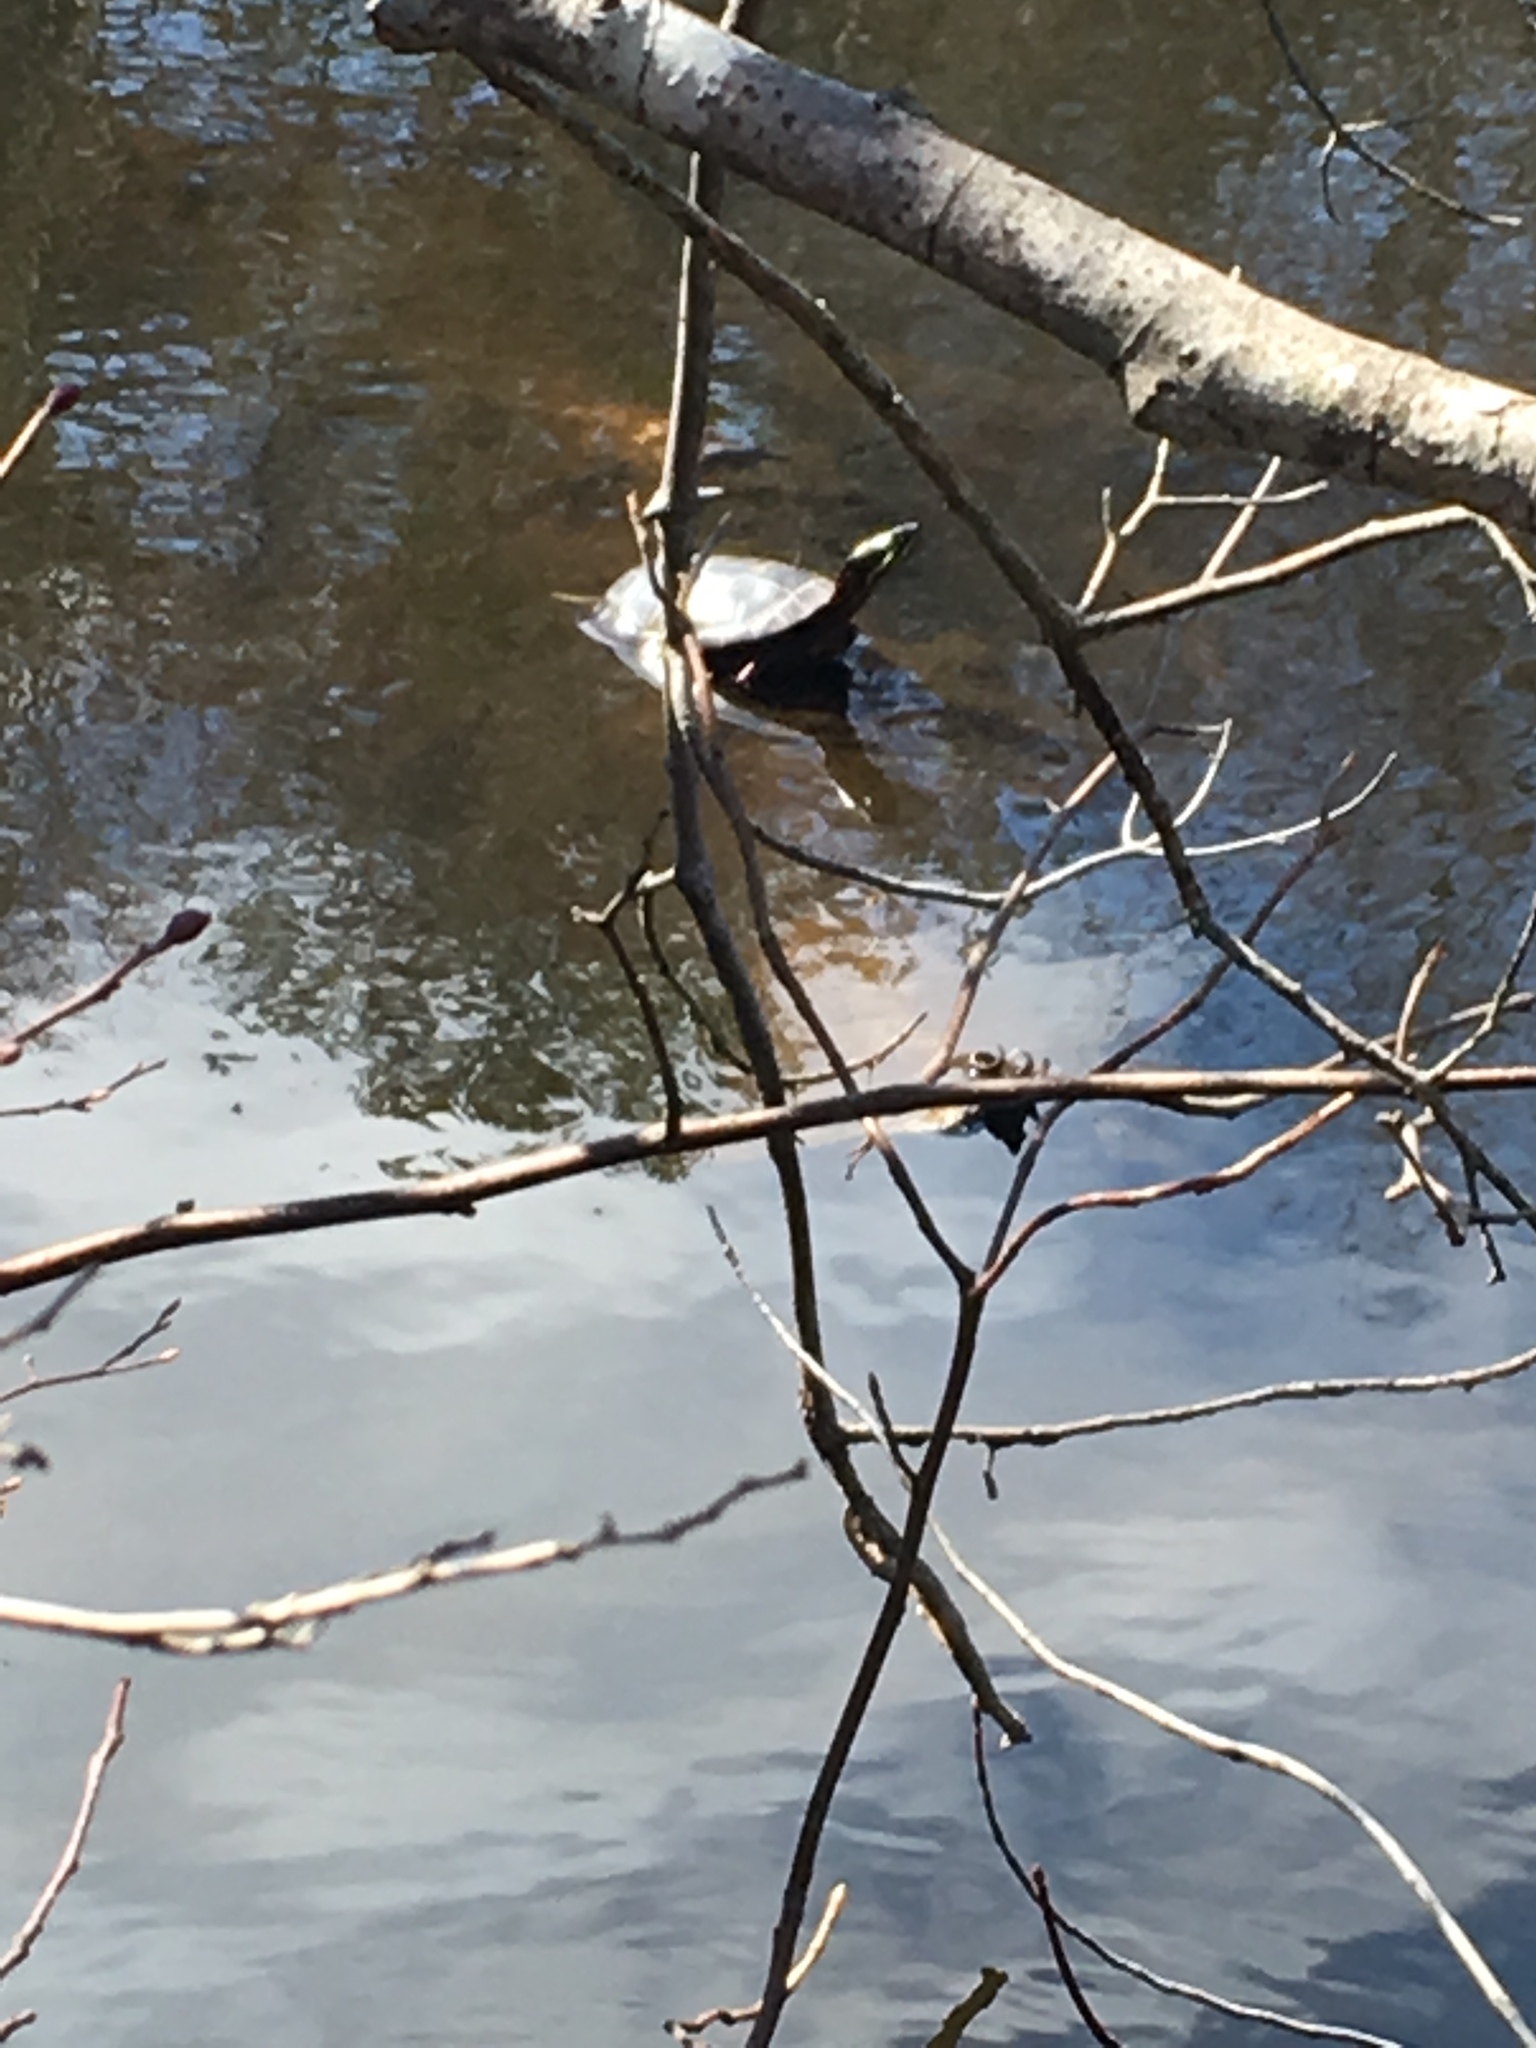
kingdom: Animalia
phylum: Chordata
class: Testudines
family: Emydidae
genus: Chrysemys
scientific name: Chrysemys picta
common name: Painted turtle
